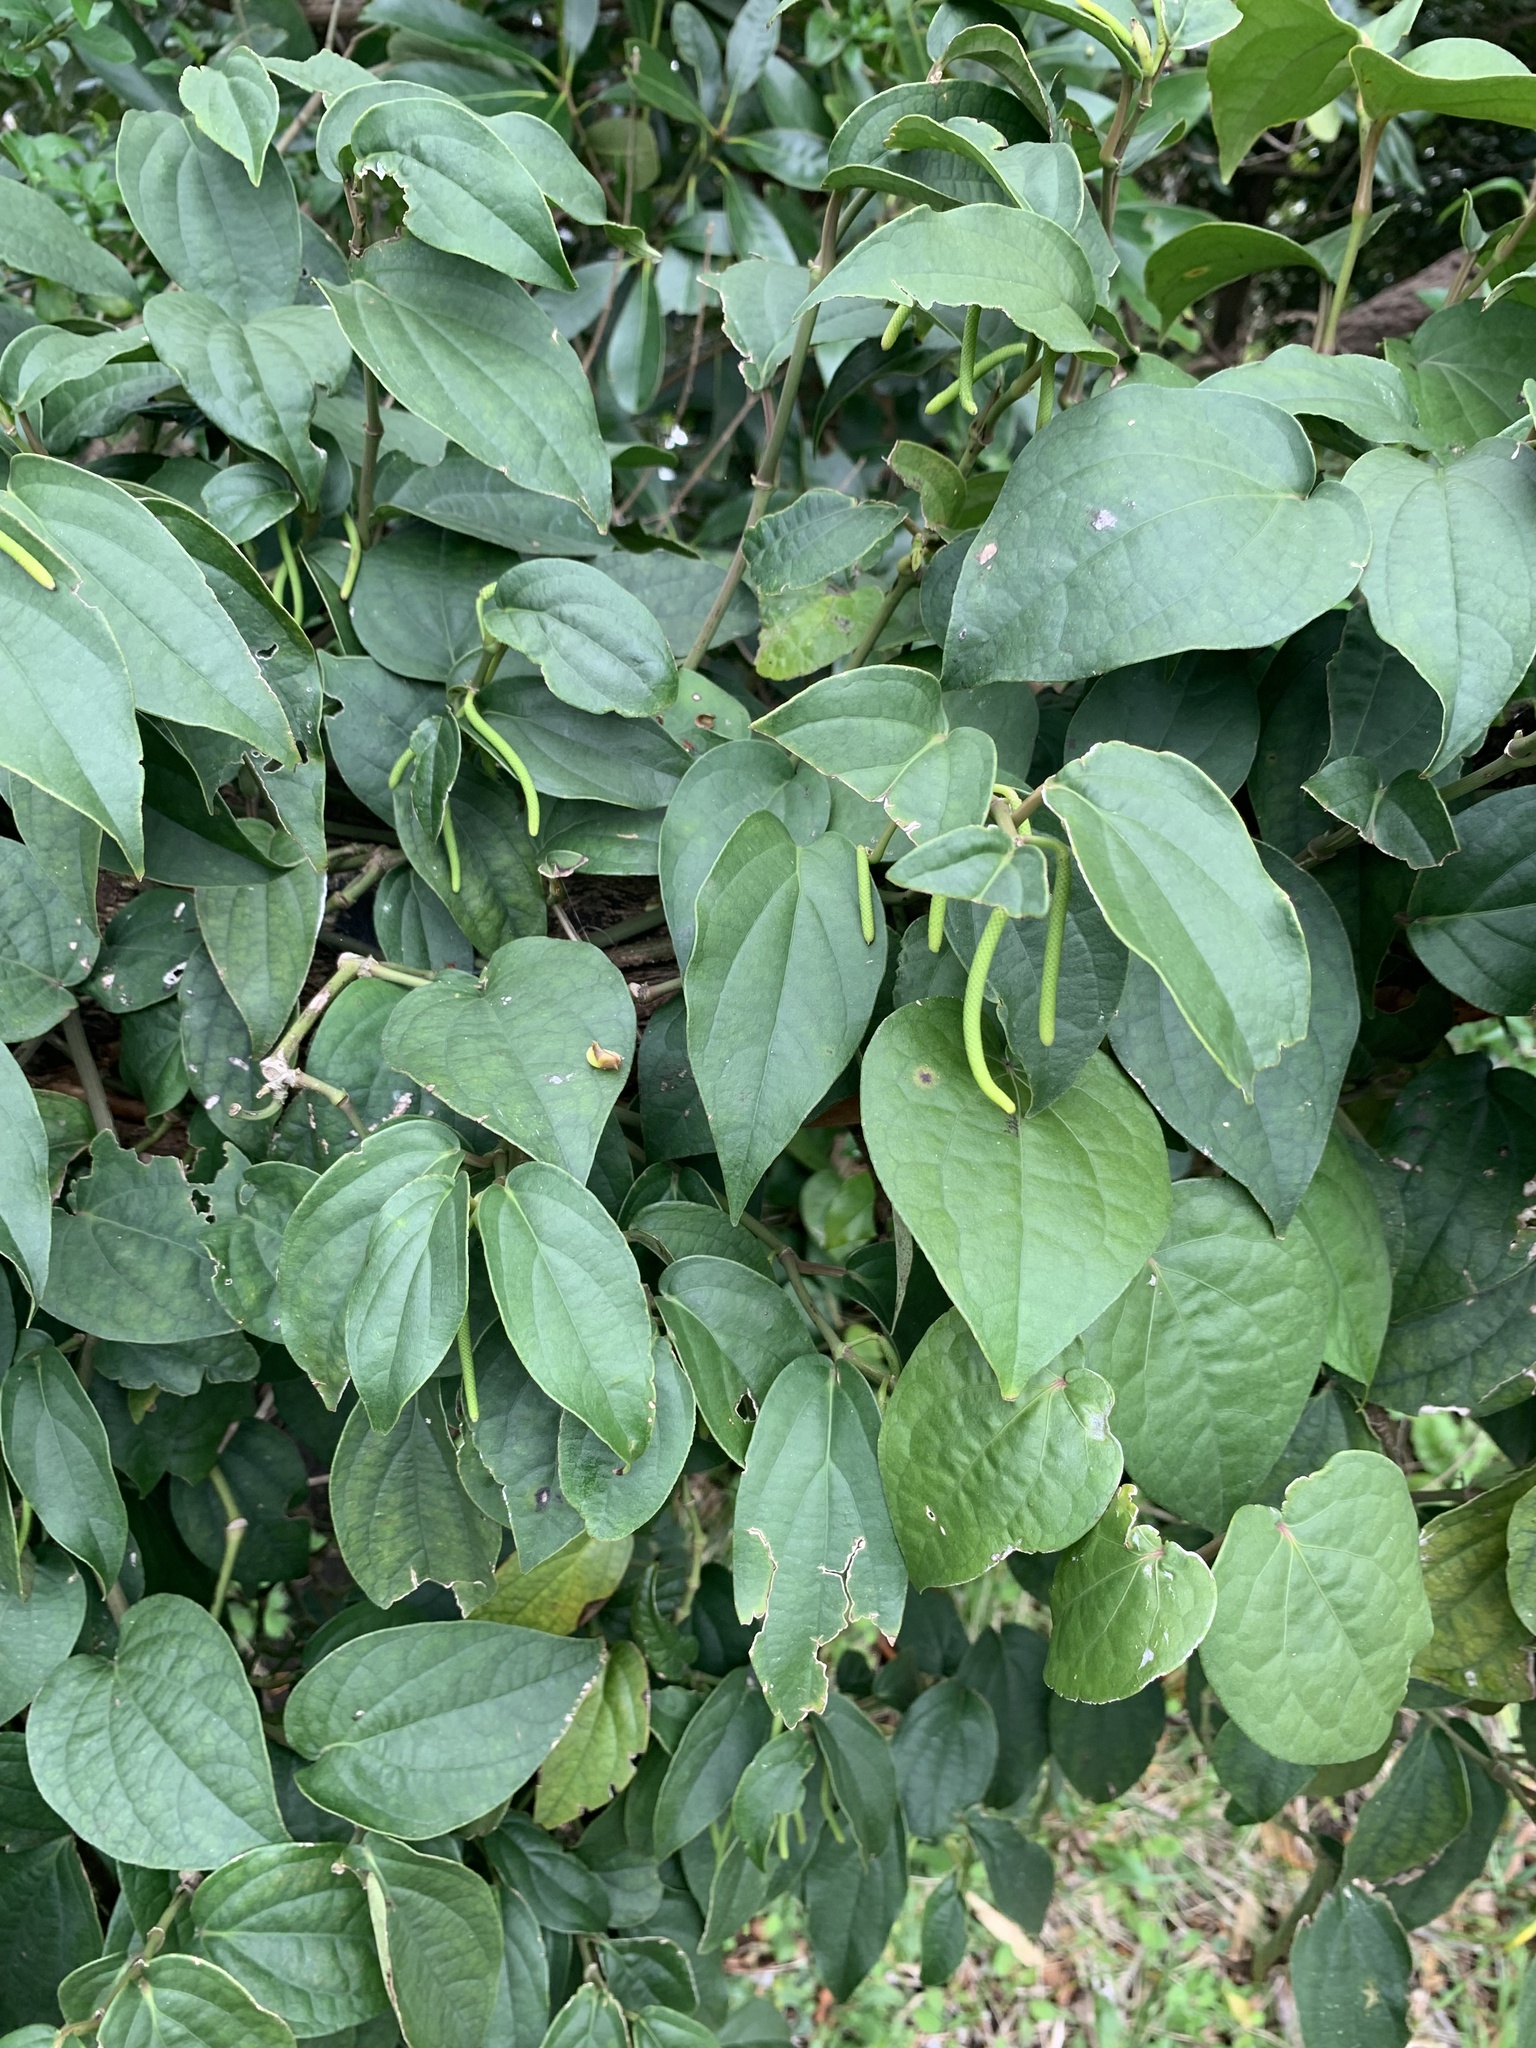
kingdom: Plantae
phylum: Tracheophyta
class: Magnoliopsida
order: Piperales
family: Piperaceae
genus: Piper
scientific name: Piper kadsura
